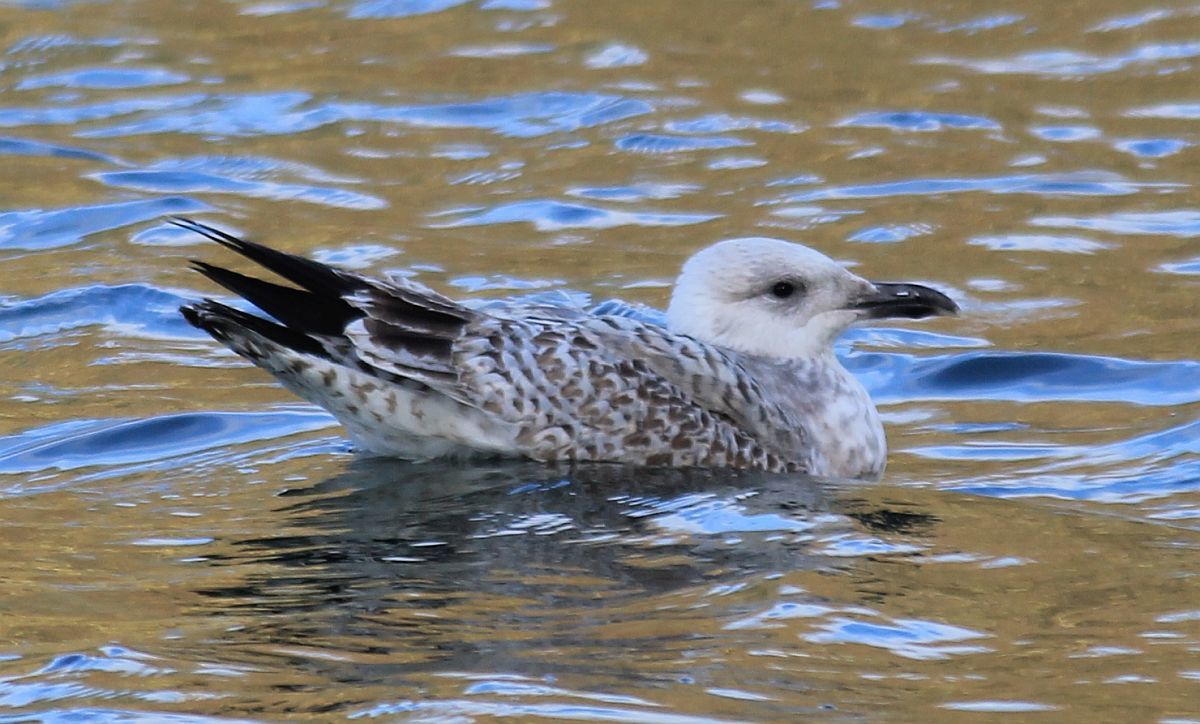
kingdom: Animalia
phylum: Chordata
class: Aves
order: Charadriiformes
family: Laridae
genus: Larus
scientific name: Larus argentatus
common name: Herring gull
